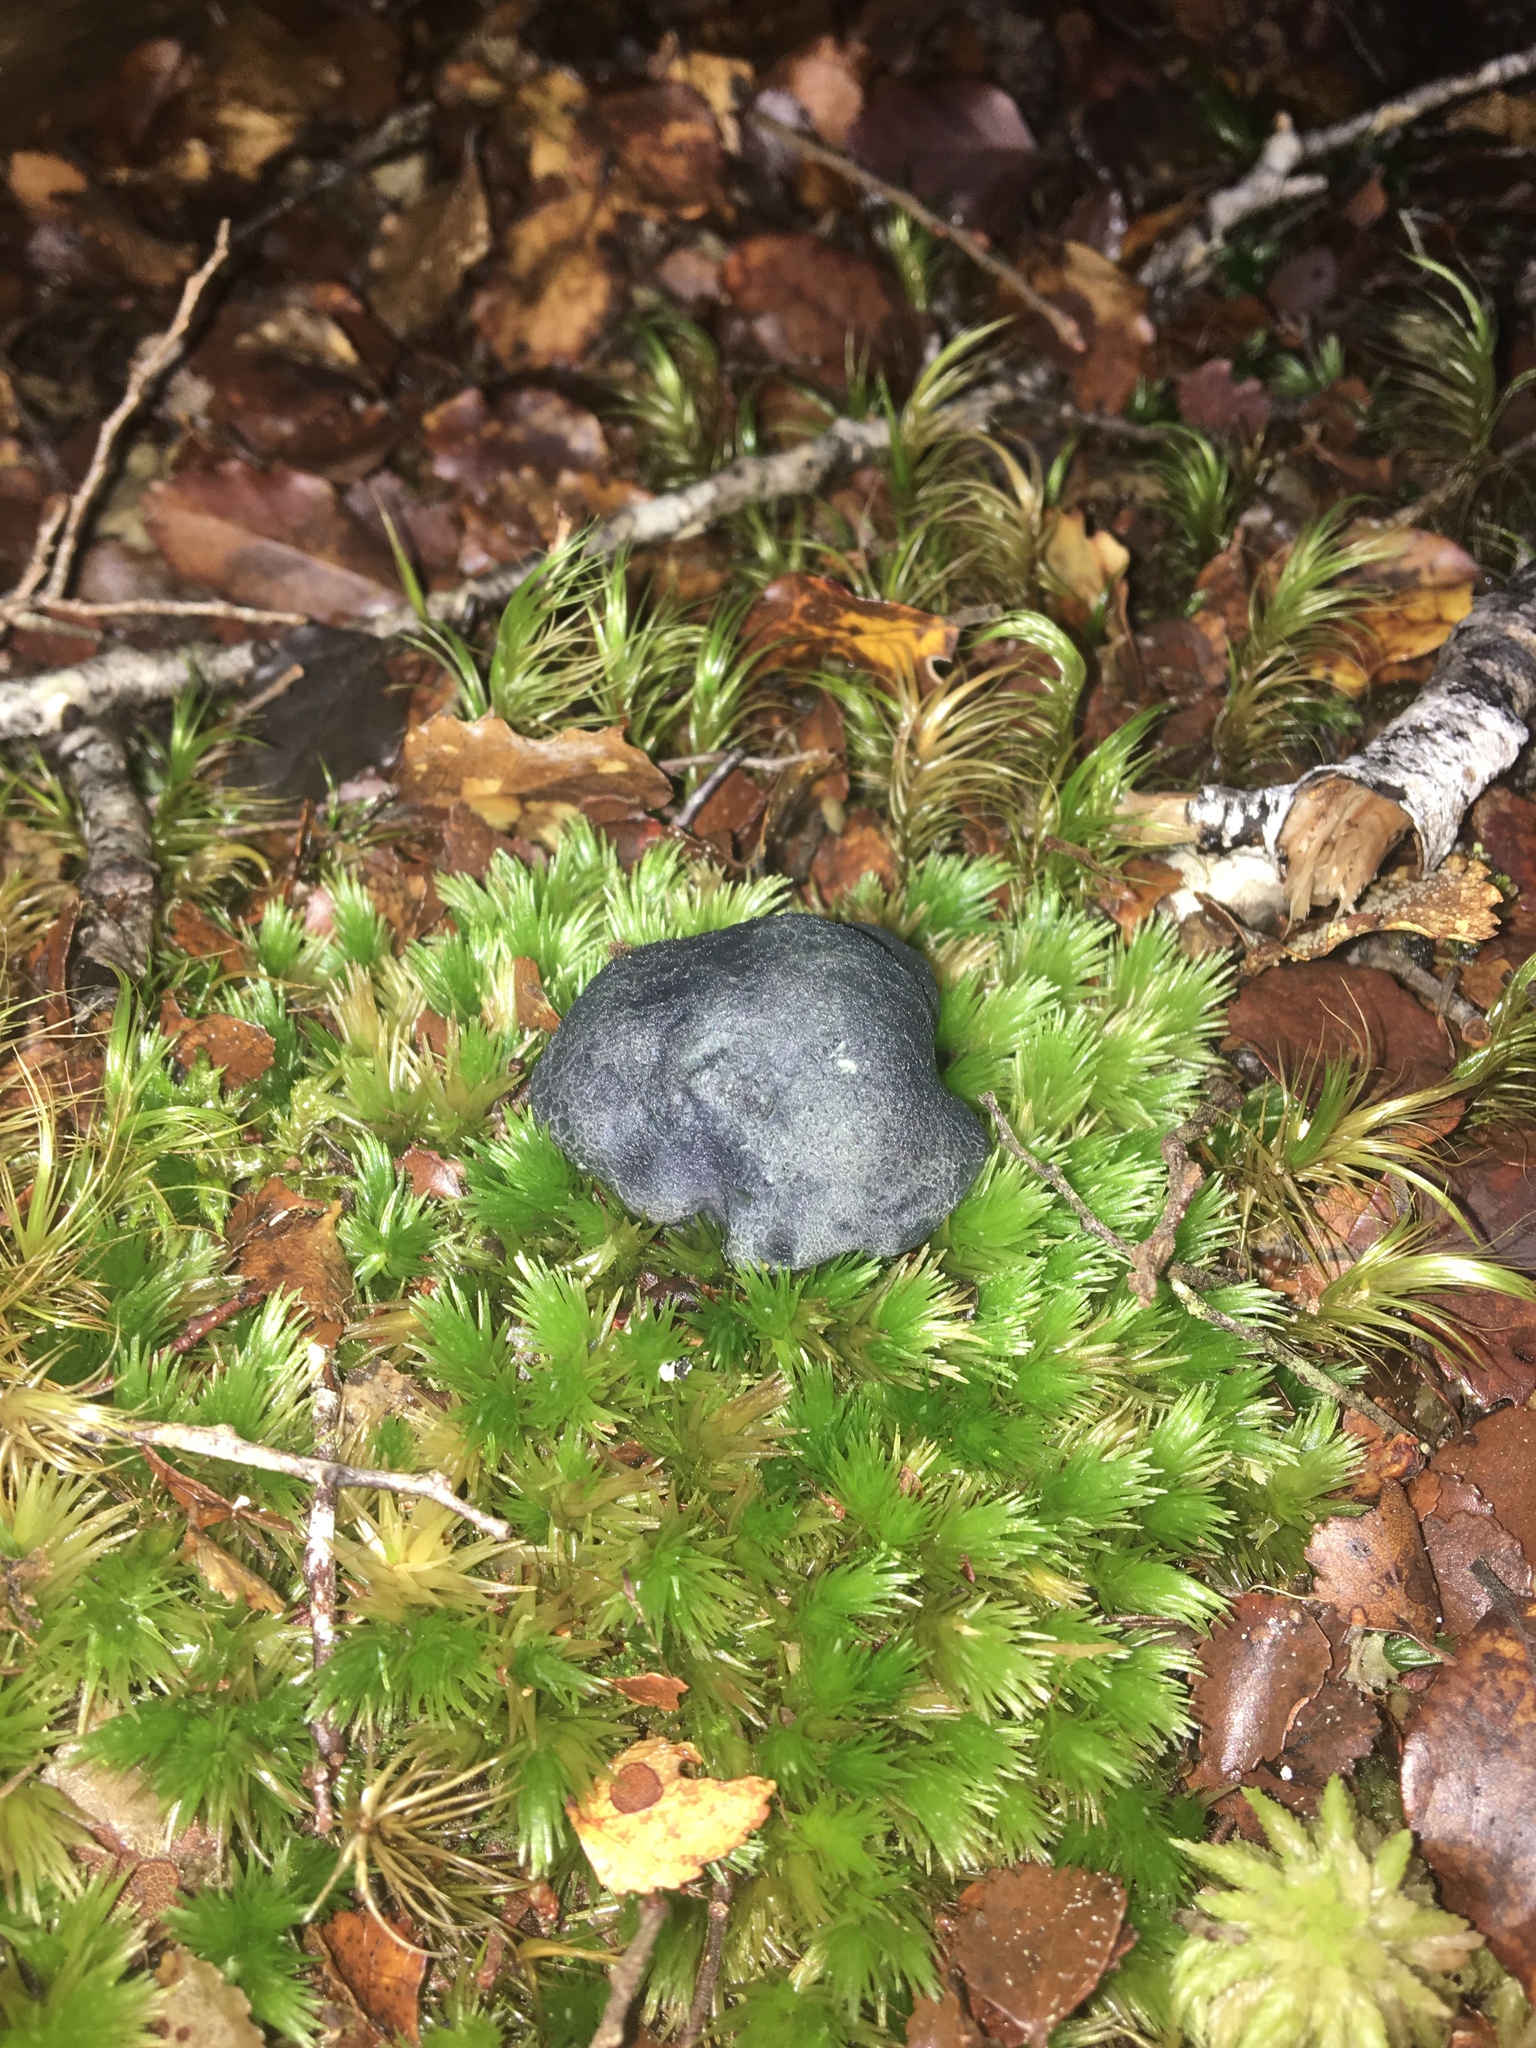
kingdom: Fungi
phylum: Basidiomycota
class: Agaricomycetes
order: Boletales
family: Boletaceae
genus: Leccinum
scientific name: Leccinum pachyderme
